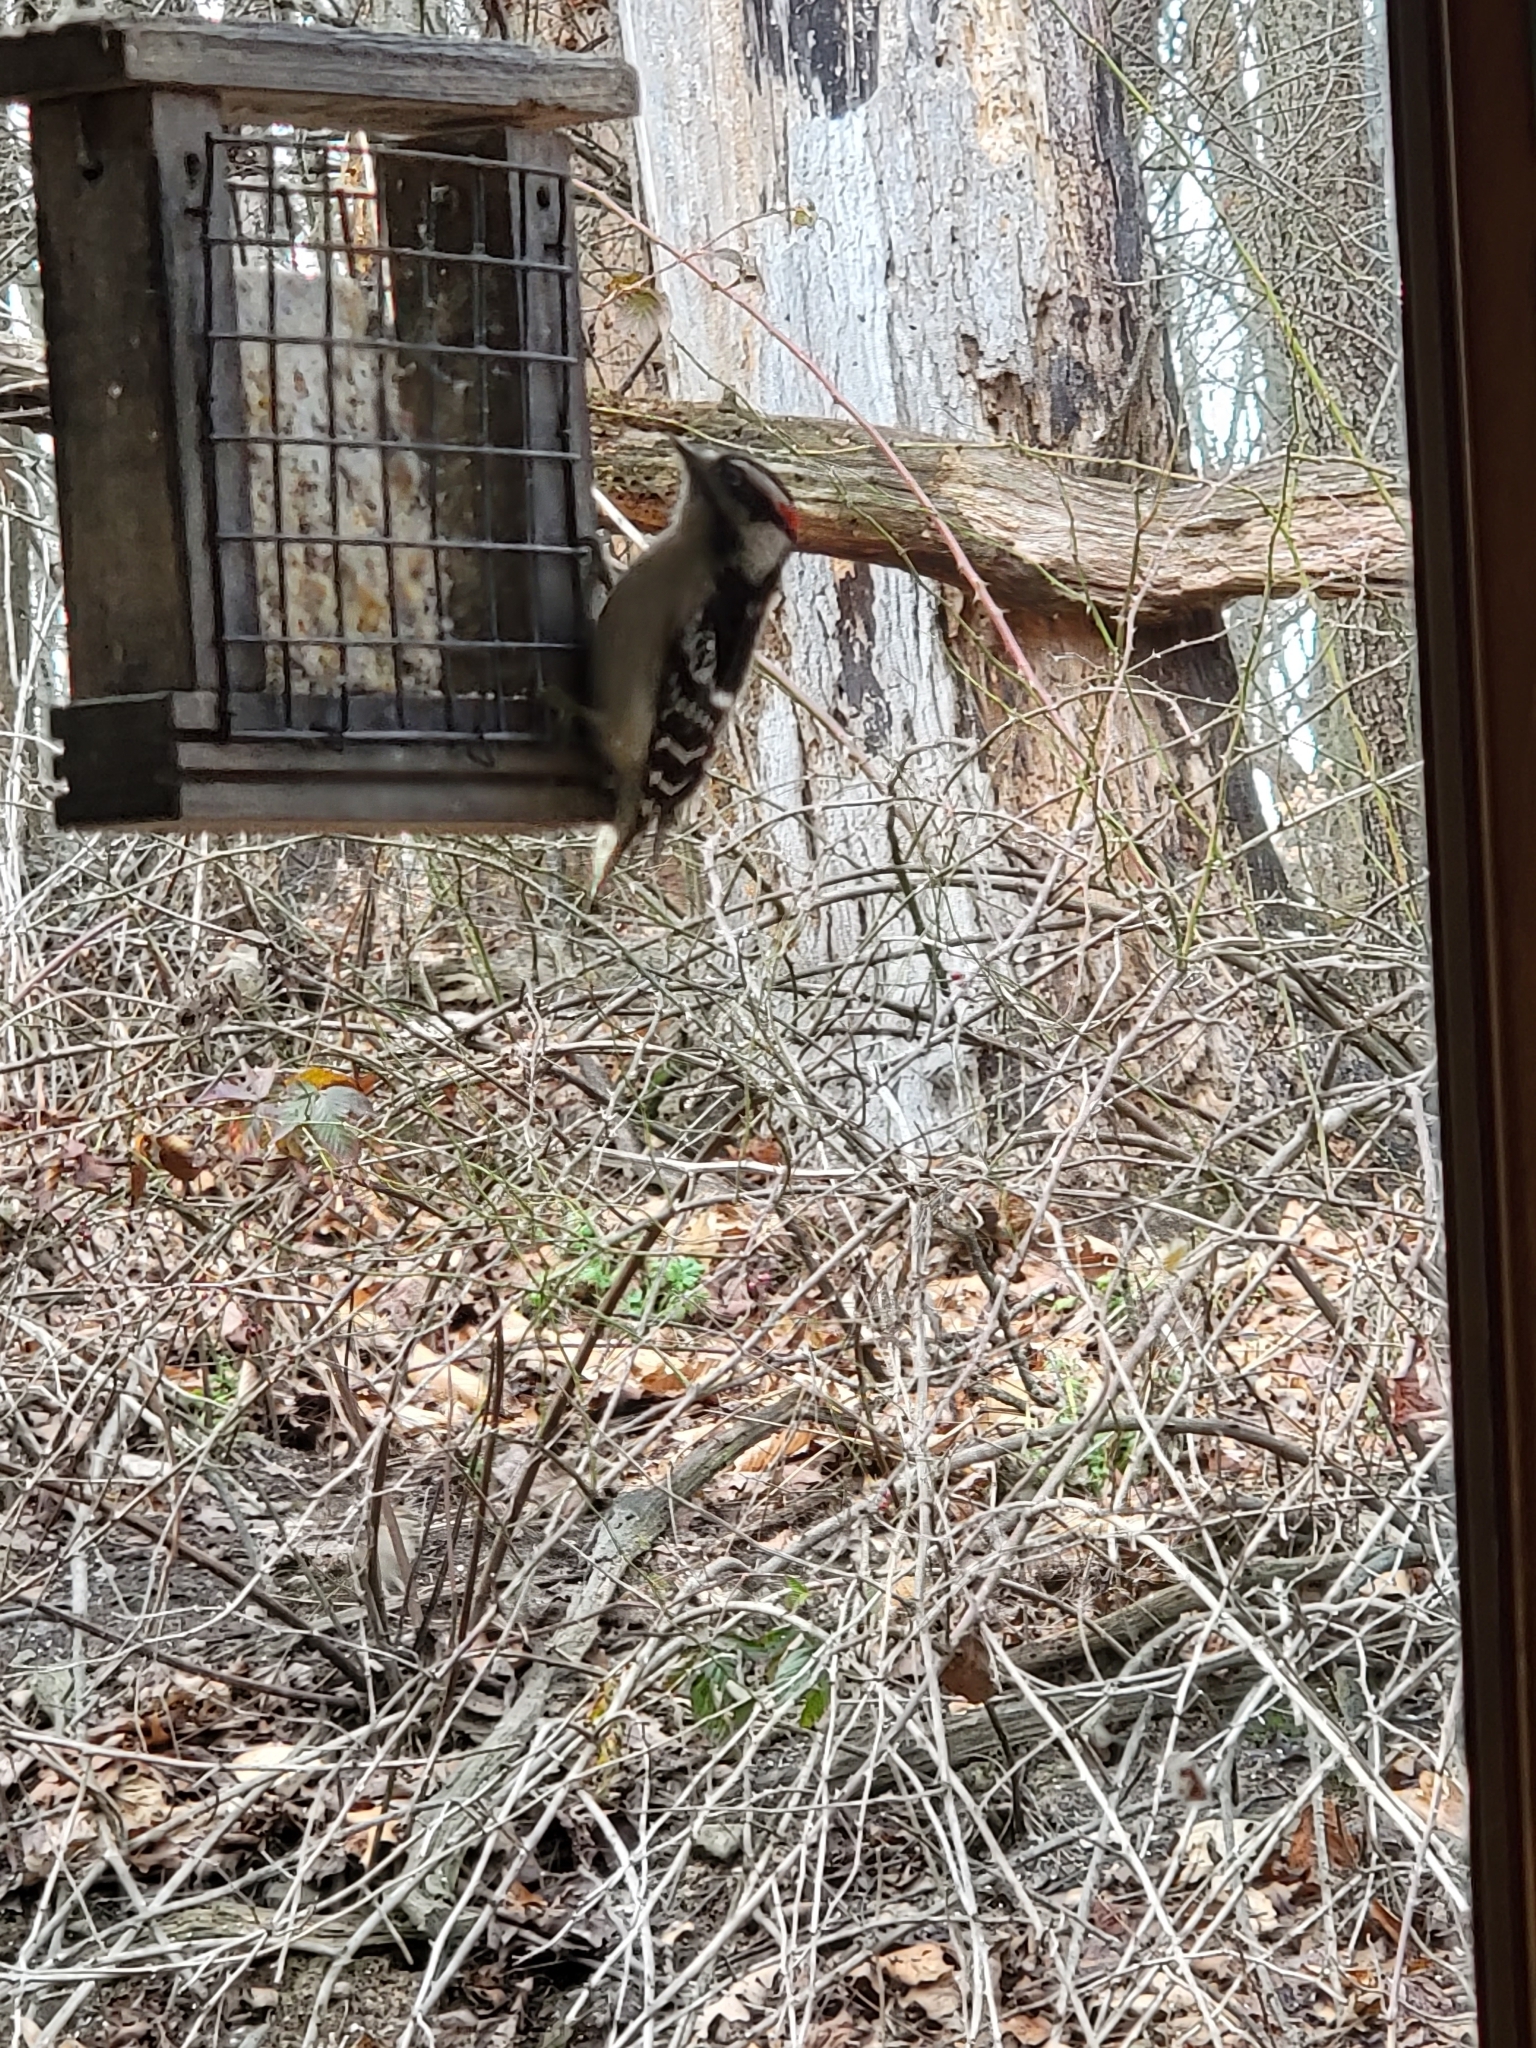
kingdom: Animalia
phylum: Chordata
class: Aves
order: Piciformes
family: Picidae
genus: Dryobates
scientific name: Dryobates pubescens
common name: Downy woodpecker
